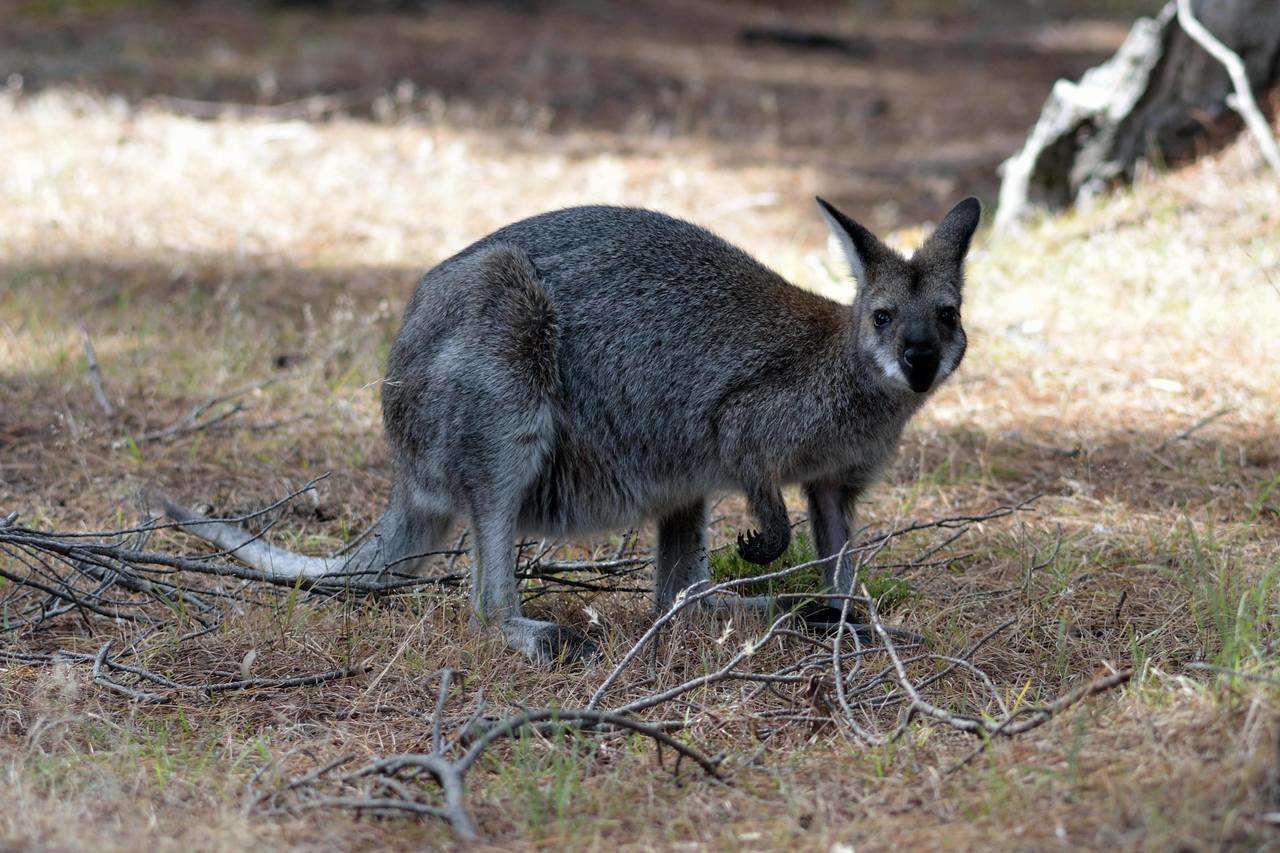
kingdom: Animalia
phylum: Chordata
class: Mammalia
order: Diprotodontia
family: Macropodidae
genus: Notamacropus
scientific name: Notamacropus rufogriseus
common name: Red-necked wallaby
